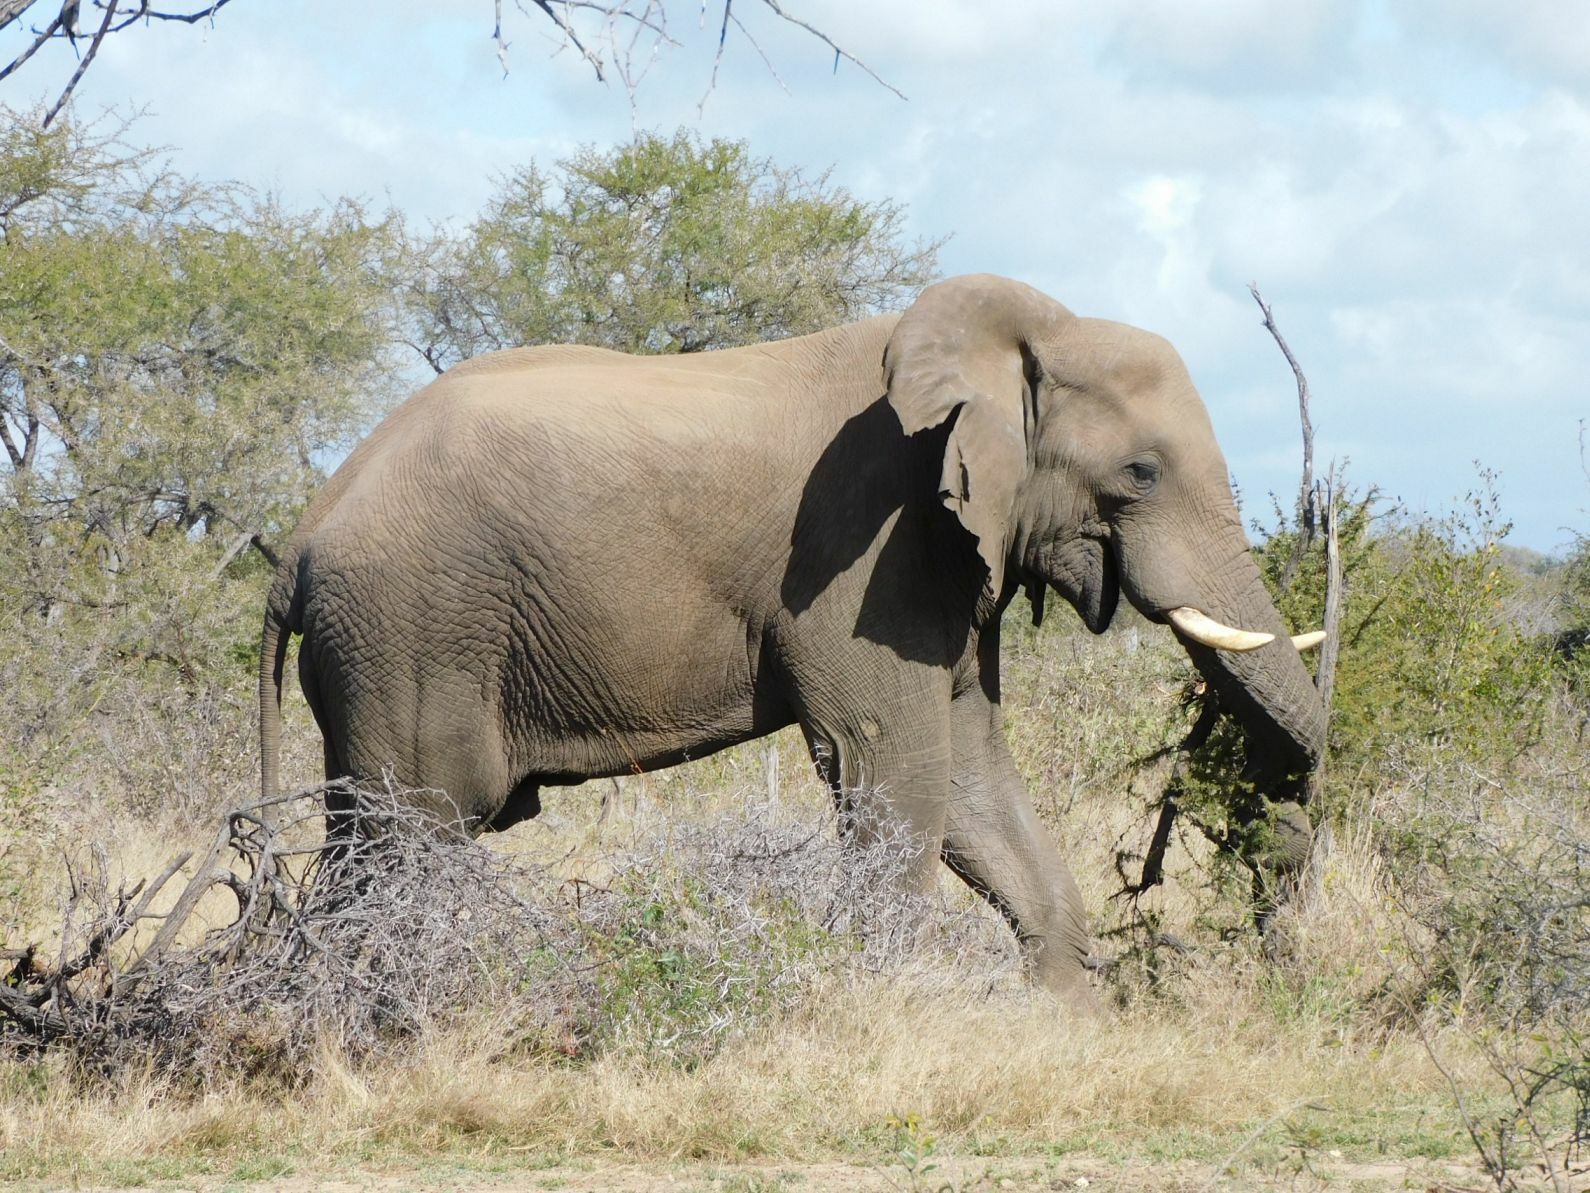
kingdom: Animalia
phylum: Chordata
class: Mammalia
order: Proboscidea
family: Elephantidae
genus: Loxodonta
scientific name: Loxodonta africana
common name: African elephant
